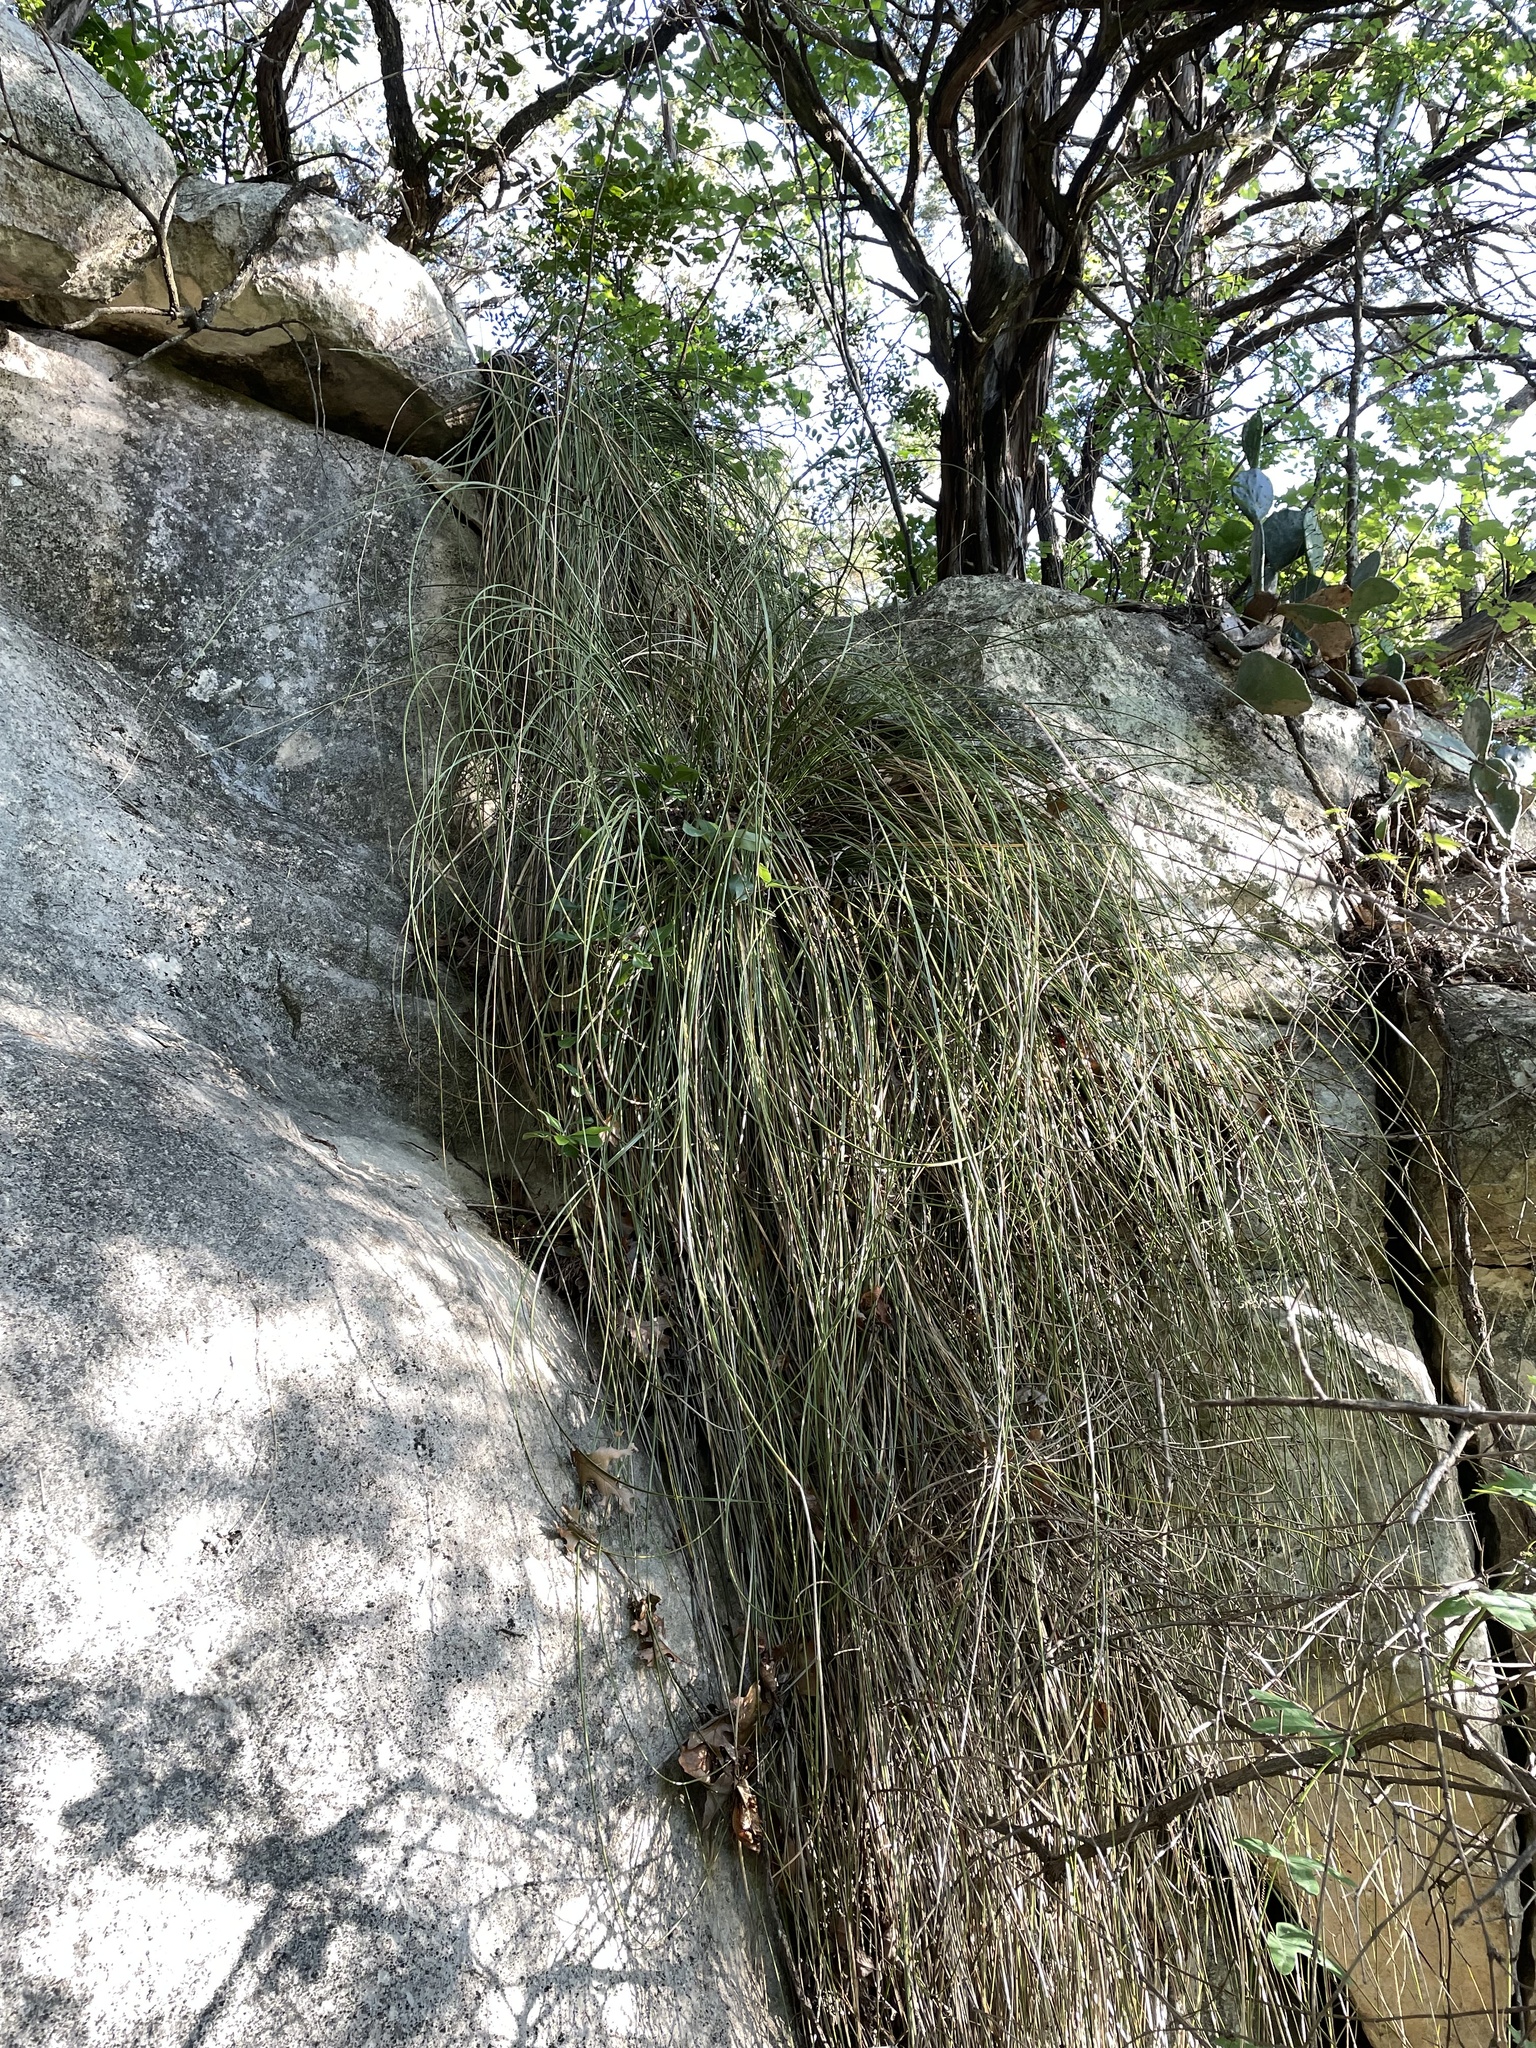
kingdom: Plantae
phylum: Tracheophyta
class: Liliopsida
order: Asparagales
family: Asparagaceae
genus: Nolina
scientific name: Nolina texana
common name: Texas sacahuiste
